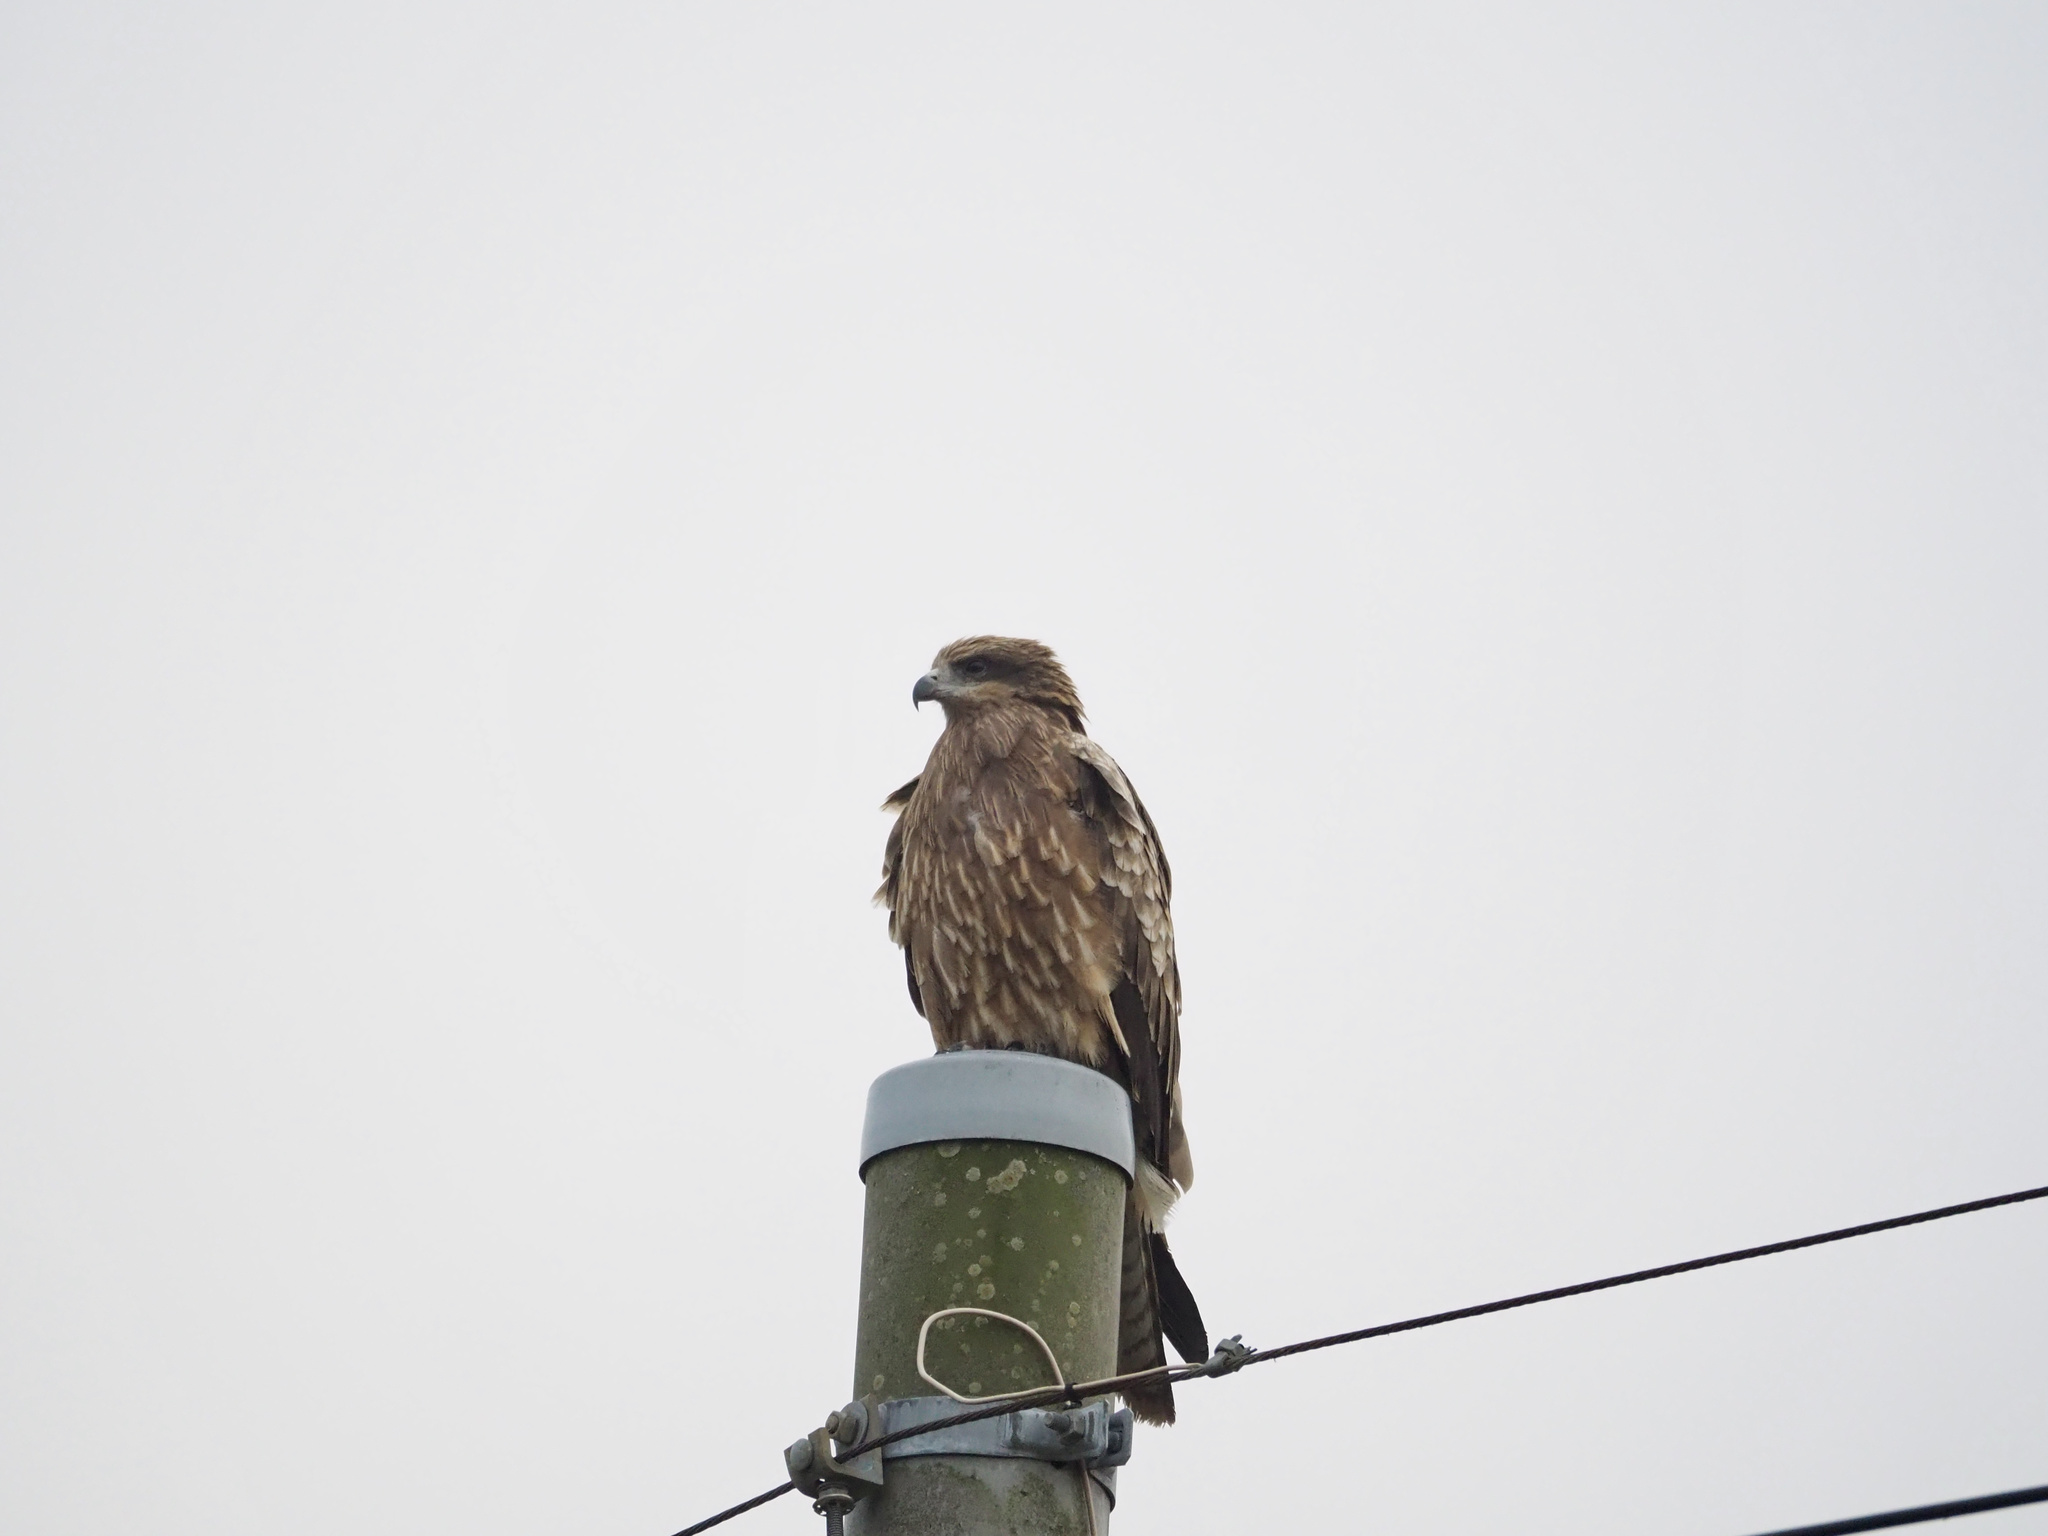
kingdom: Animalia
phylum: Chordata
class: Aves
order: Accipitriformes
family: Accipitridae
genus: Milvus
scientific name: Milvus migrans
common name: Black kite
